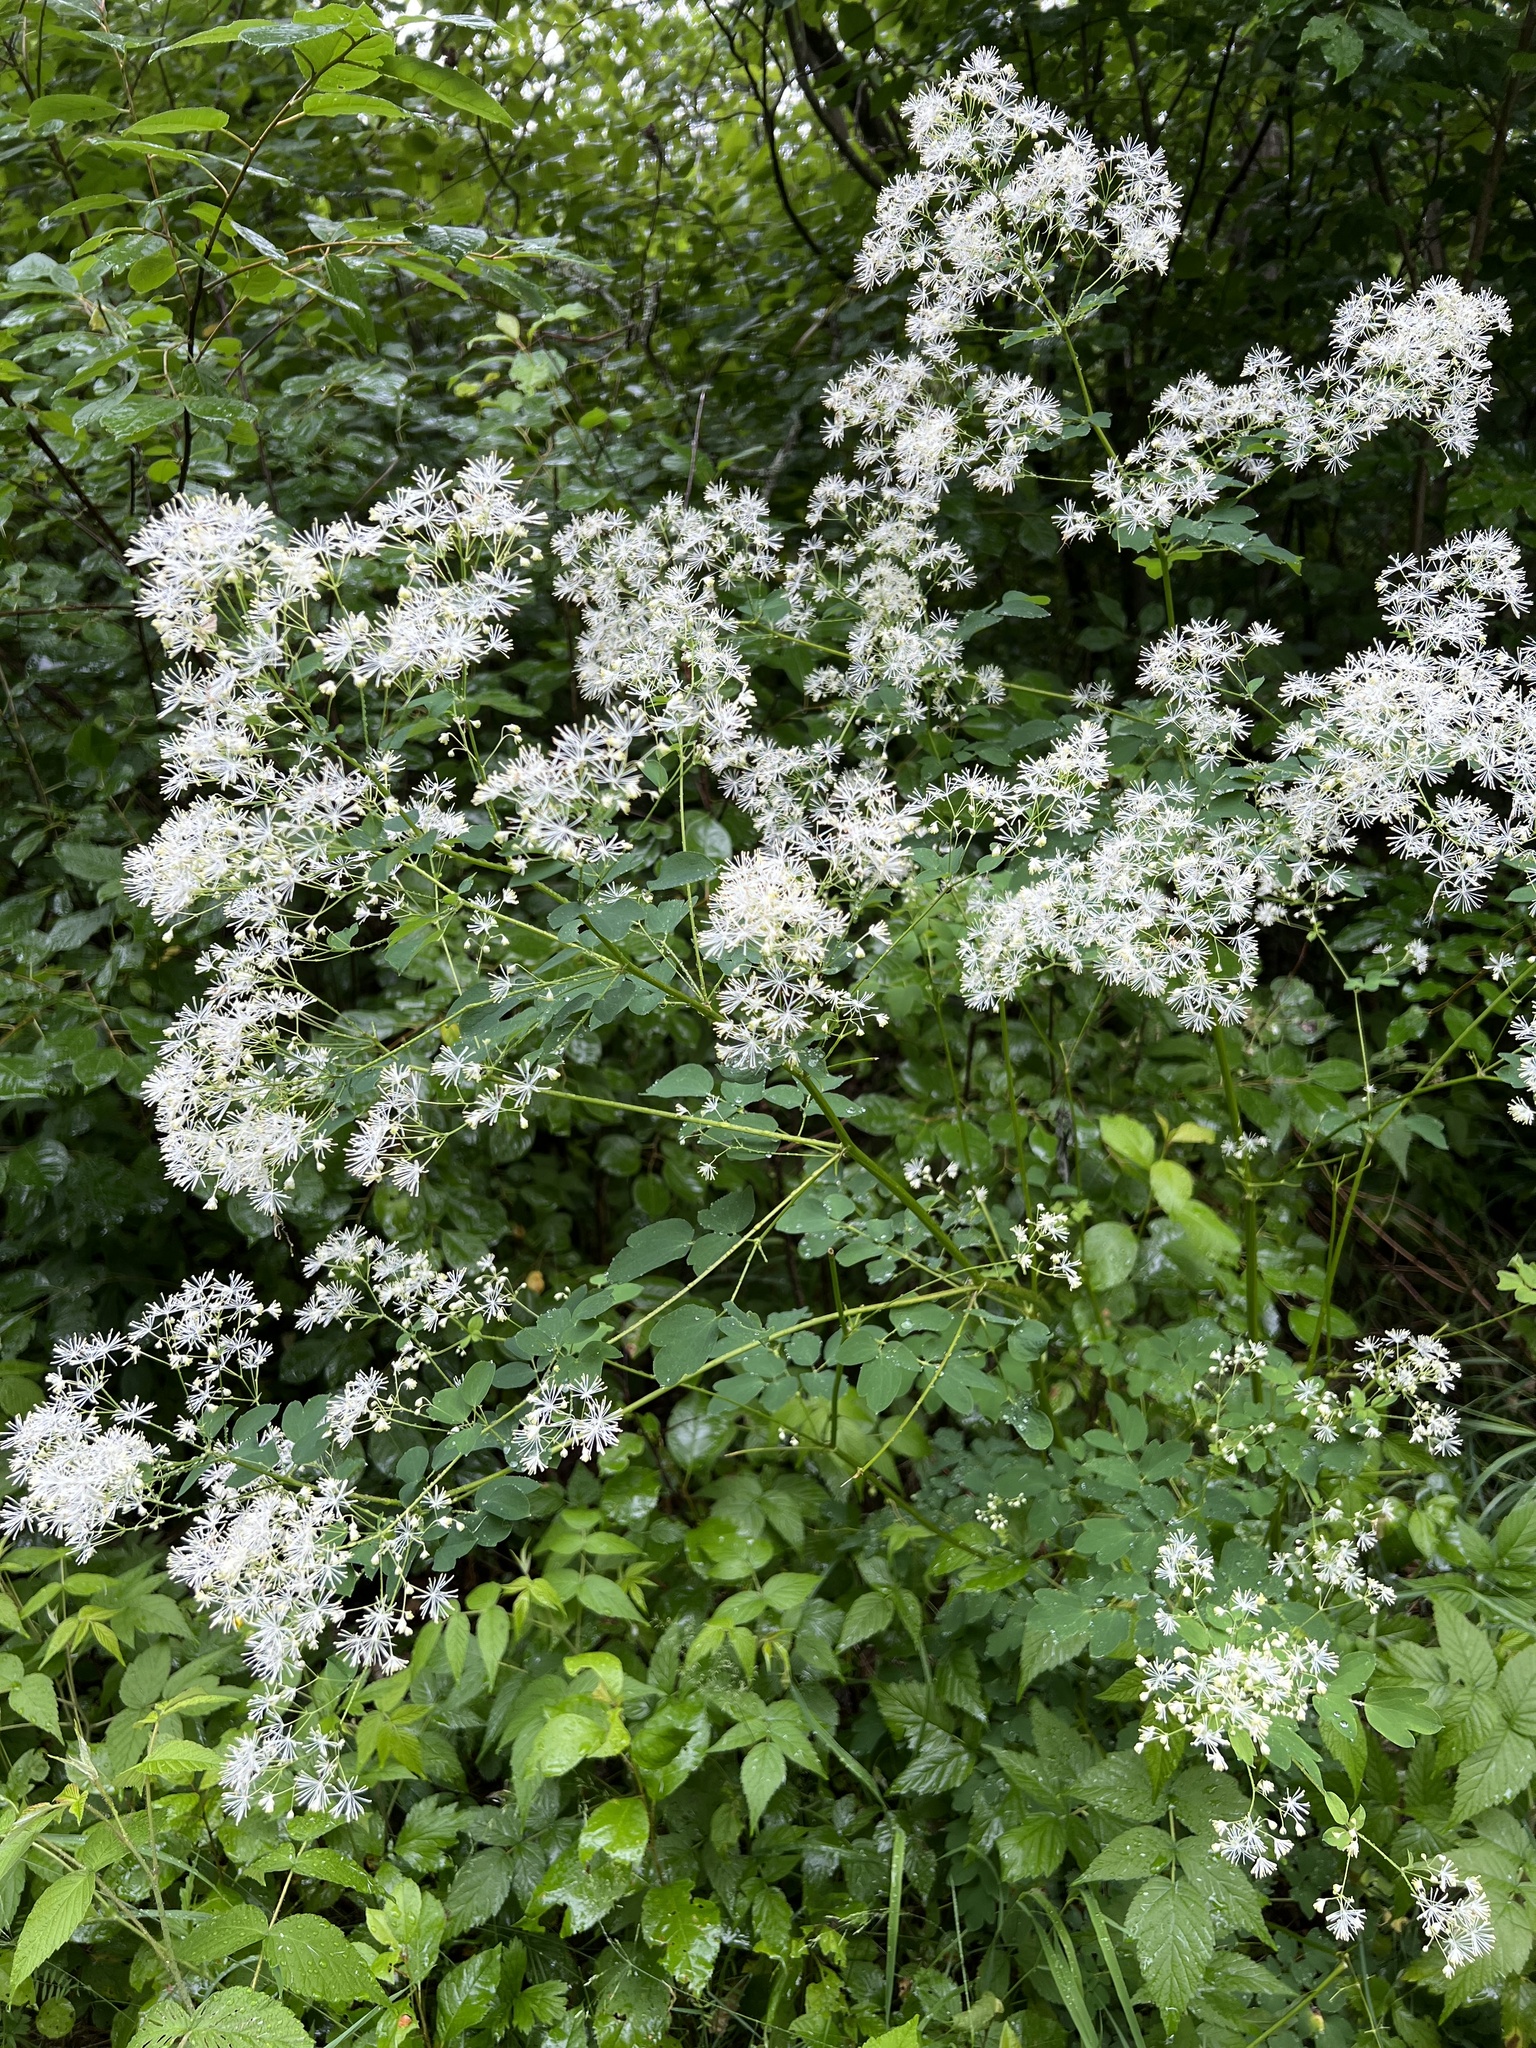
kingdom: Plantae
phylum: Tracheophyta
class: Magnoliopsida
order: Ranunculales
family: Ranunculaceae
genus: Thalictrum
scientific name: Thalictrum pubescens
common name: King-of-the-meadow
